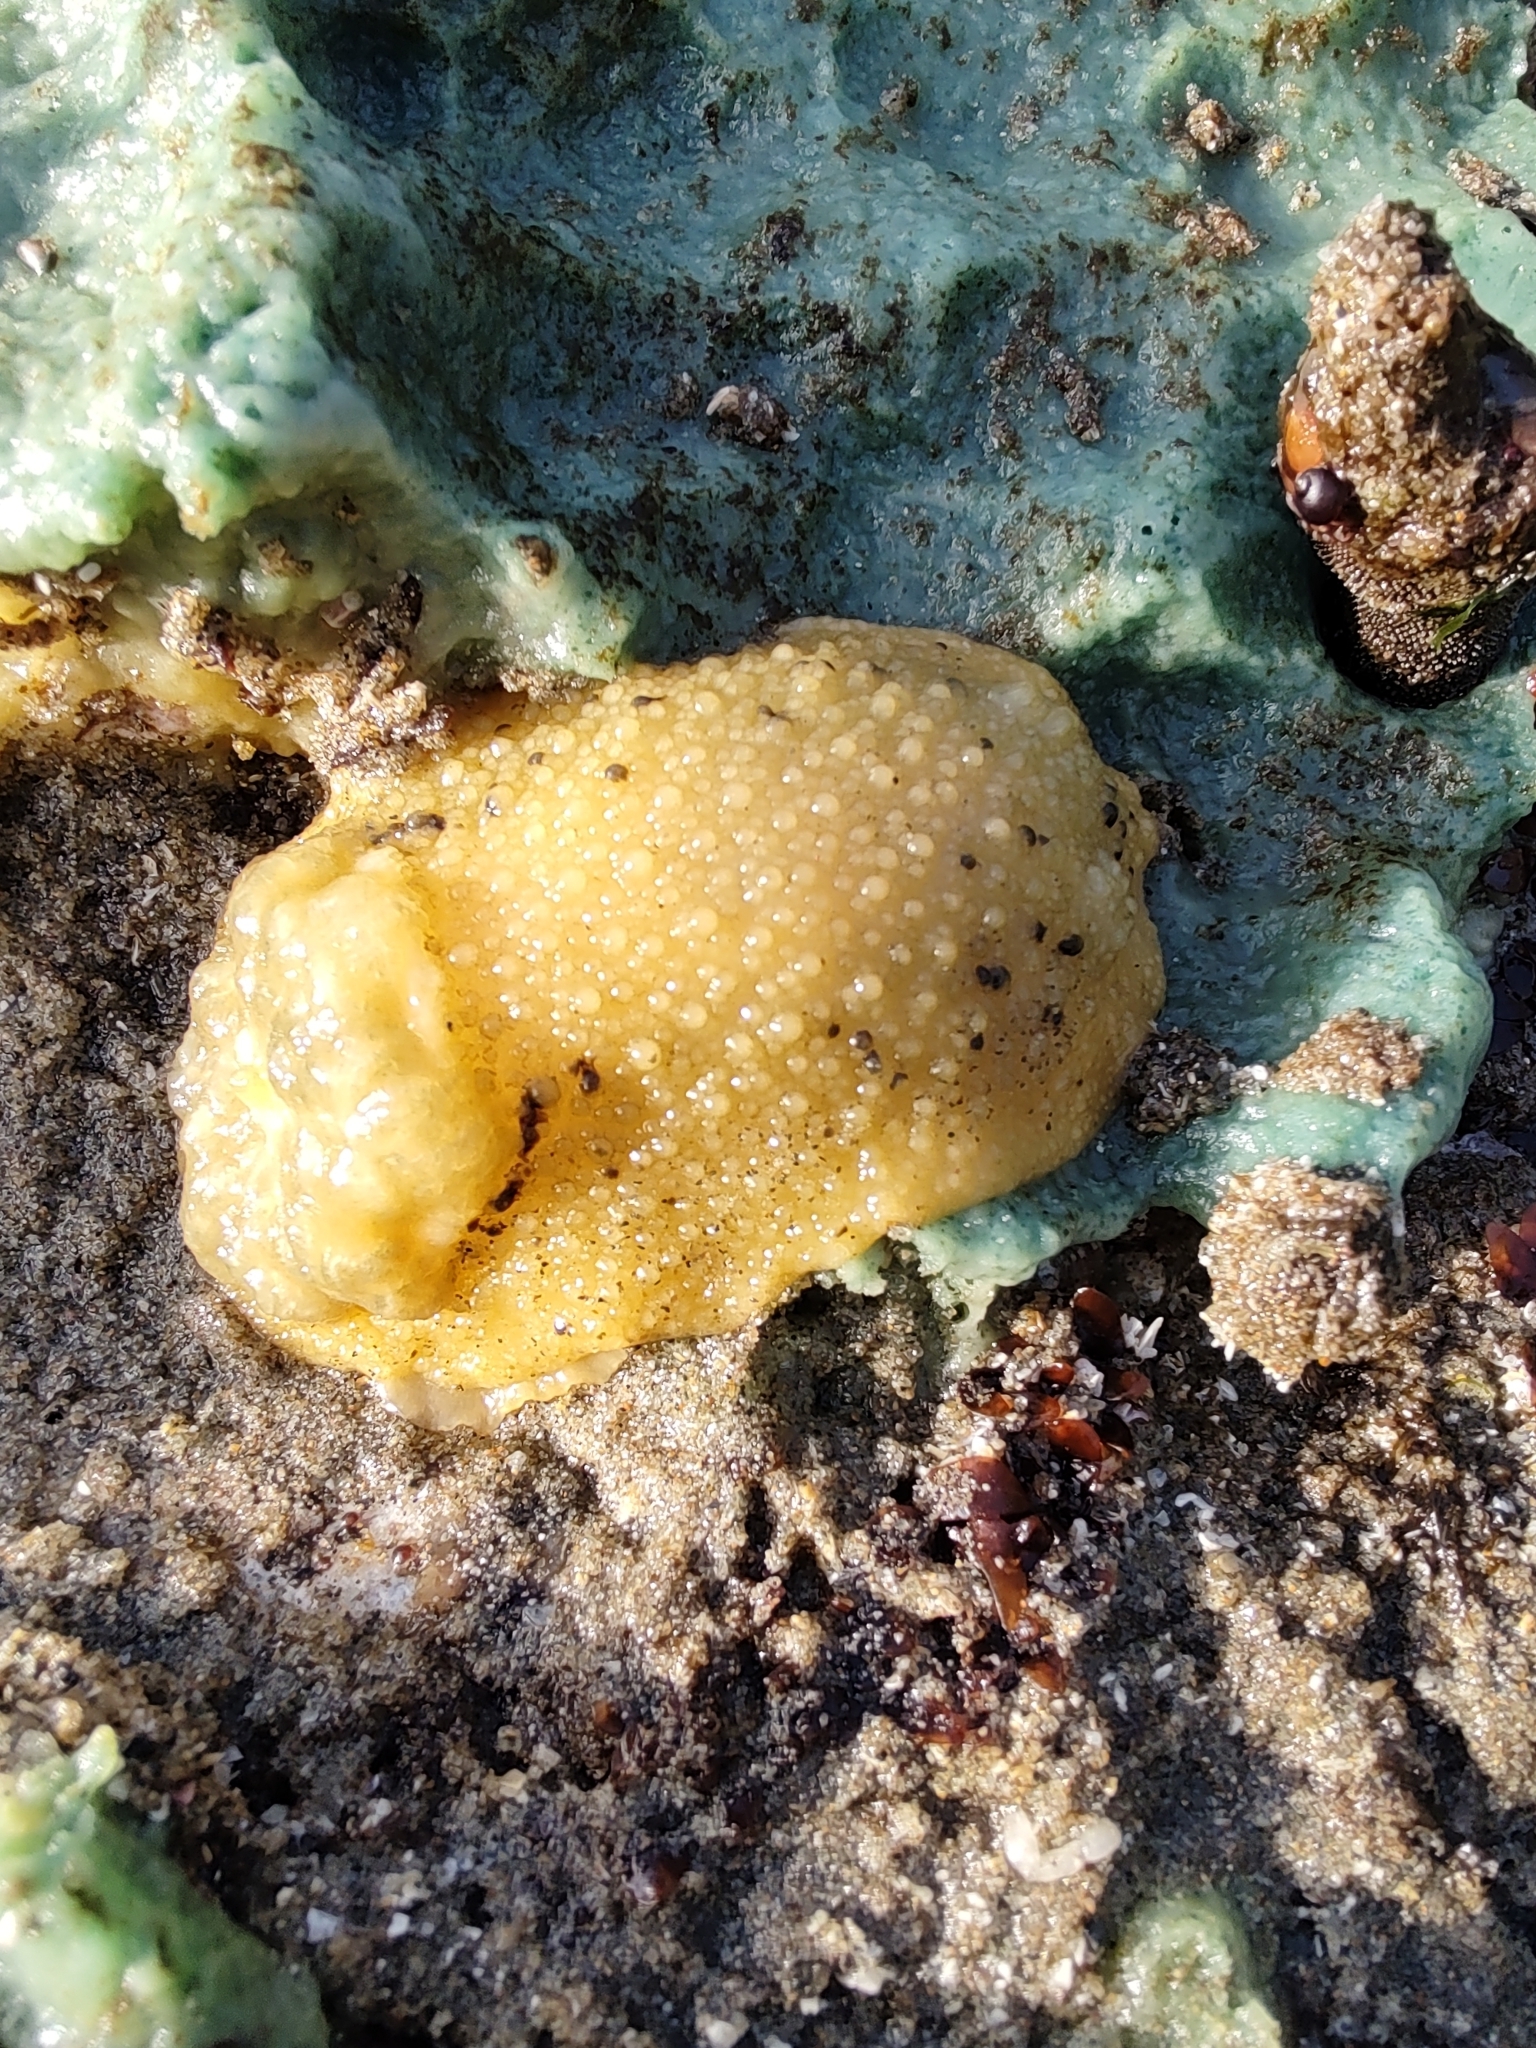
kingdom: Animalia
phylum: Mollusca
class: Gastropoda
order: Nudibranchia
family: Dorididae
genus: Doris
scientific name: Doris montereyensis
